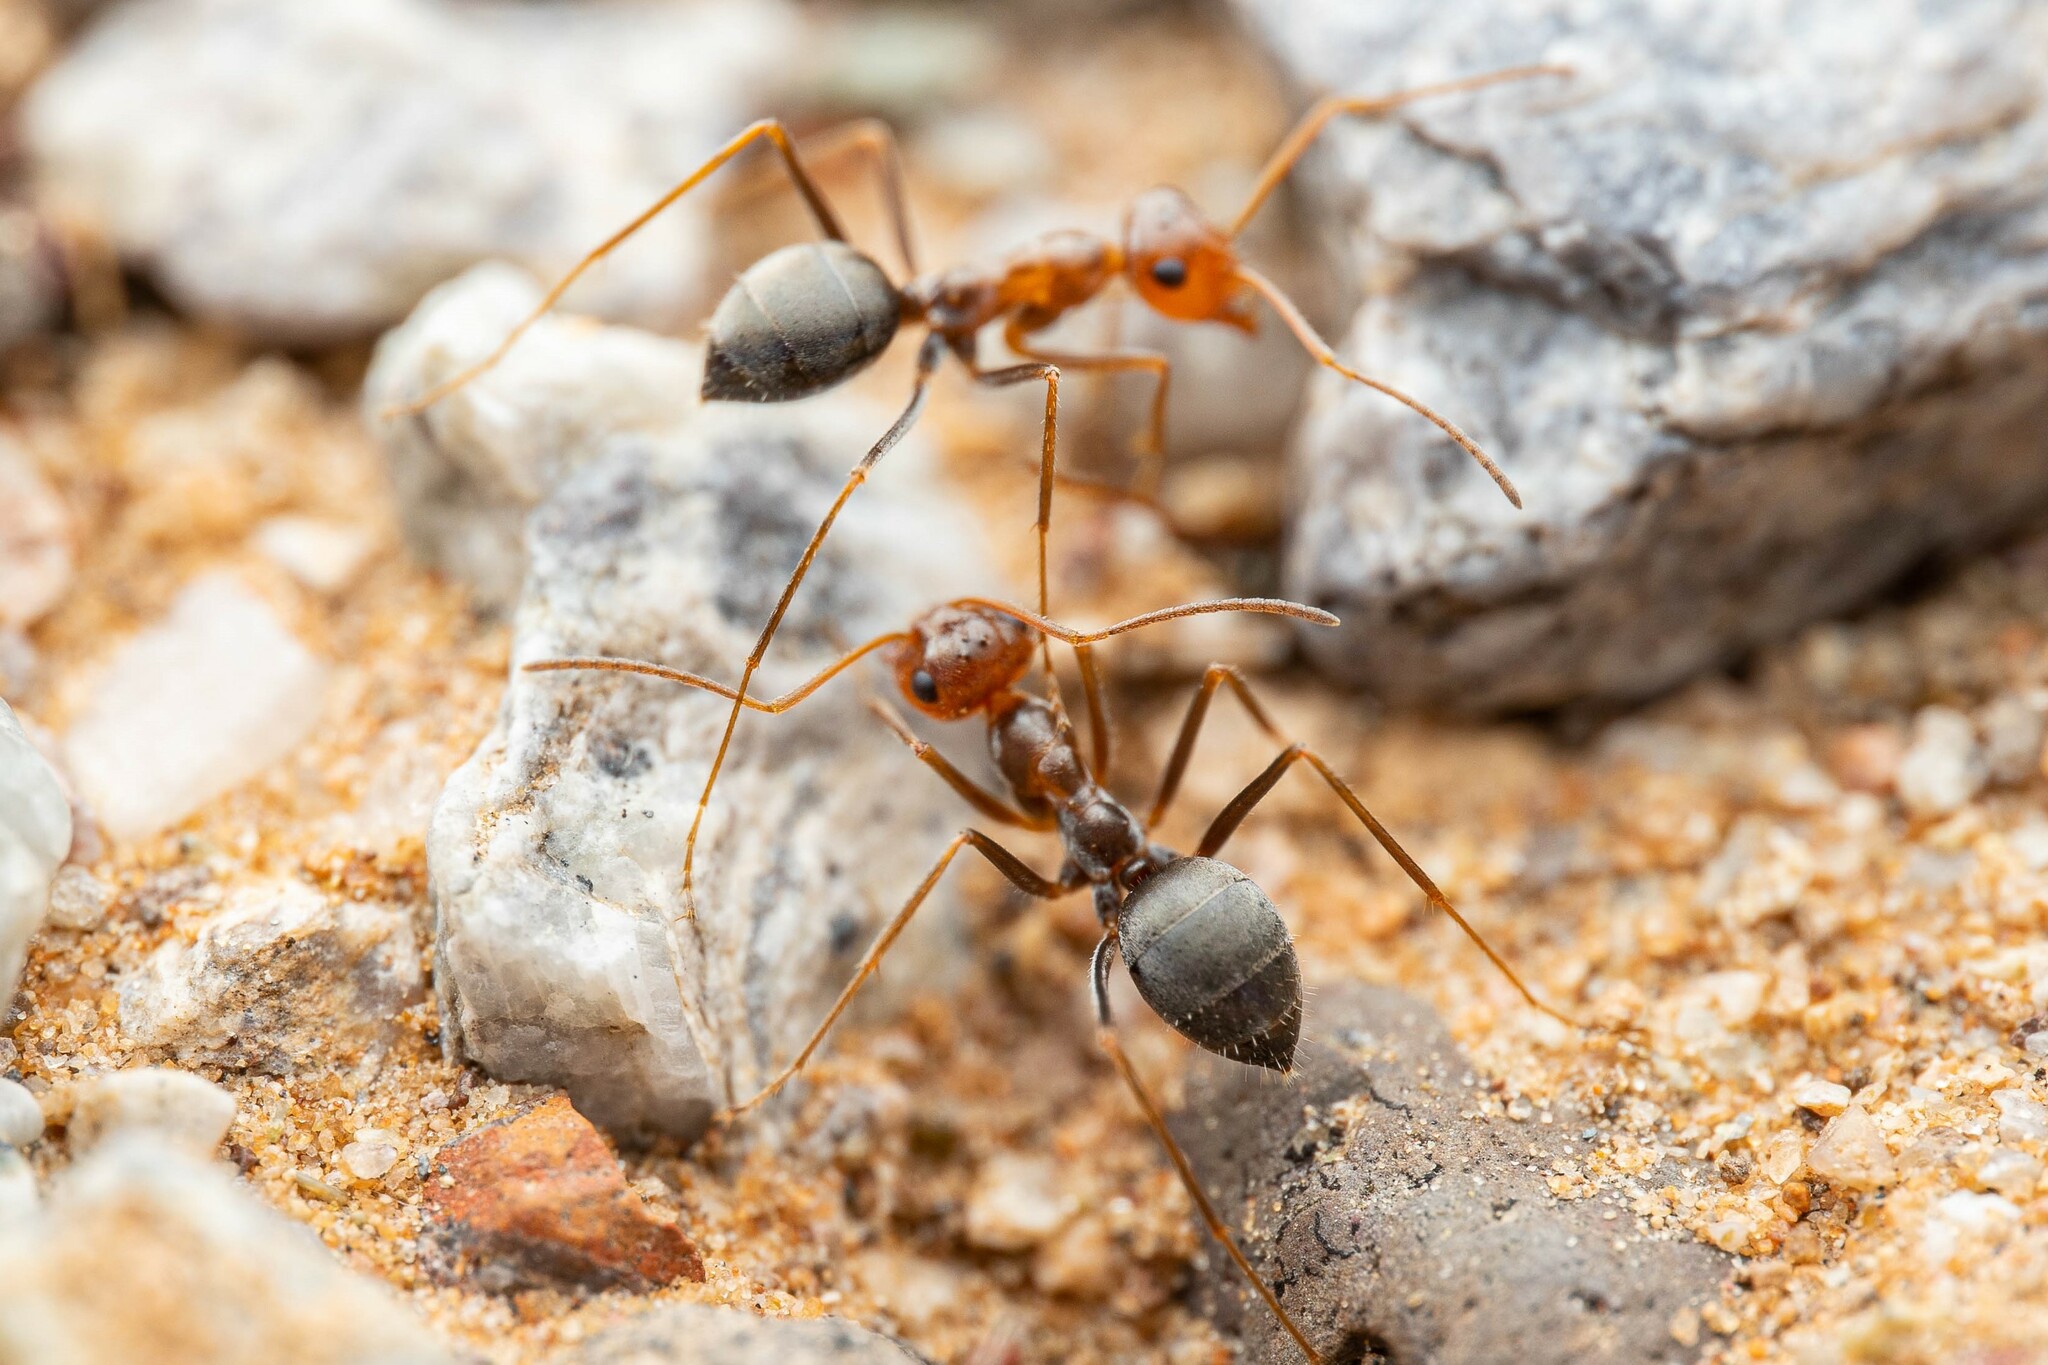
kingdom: Animalia
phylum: Arthropoda
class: Insecta
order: Hymenoptera
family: Formicidae
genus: Endiodioctes
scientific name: Endiodioctes
